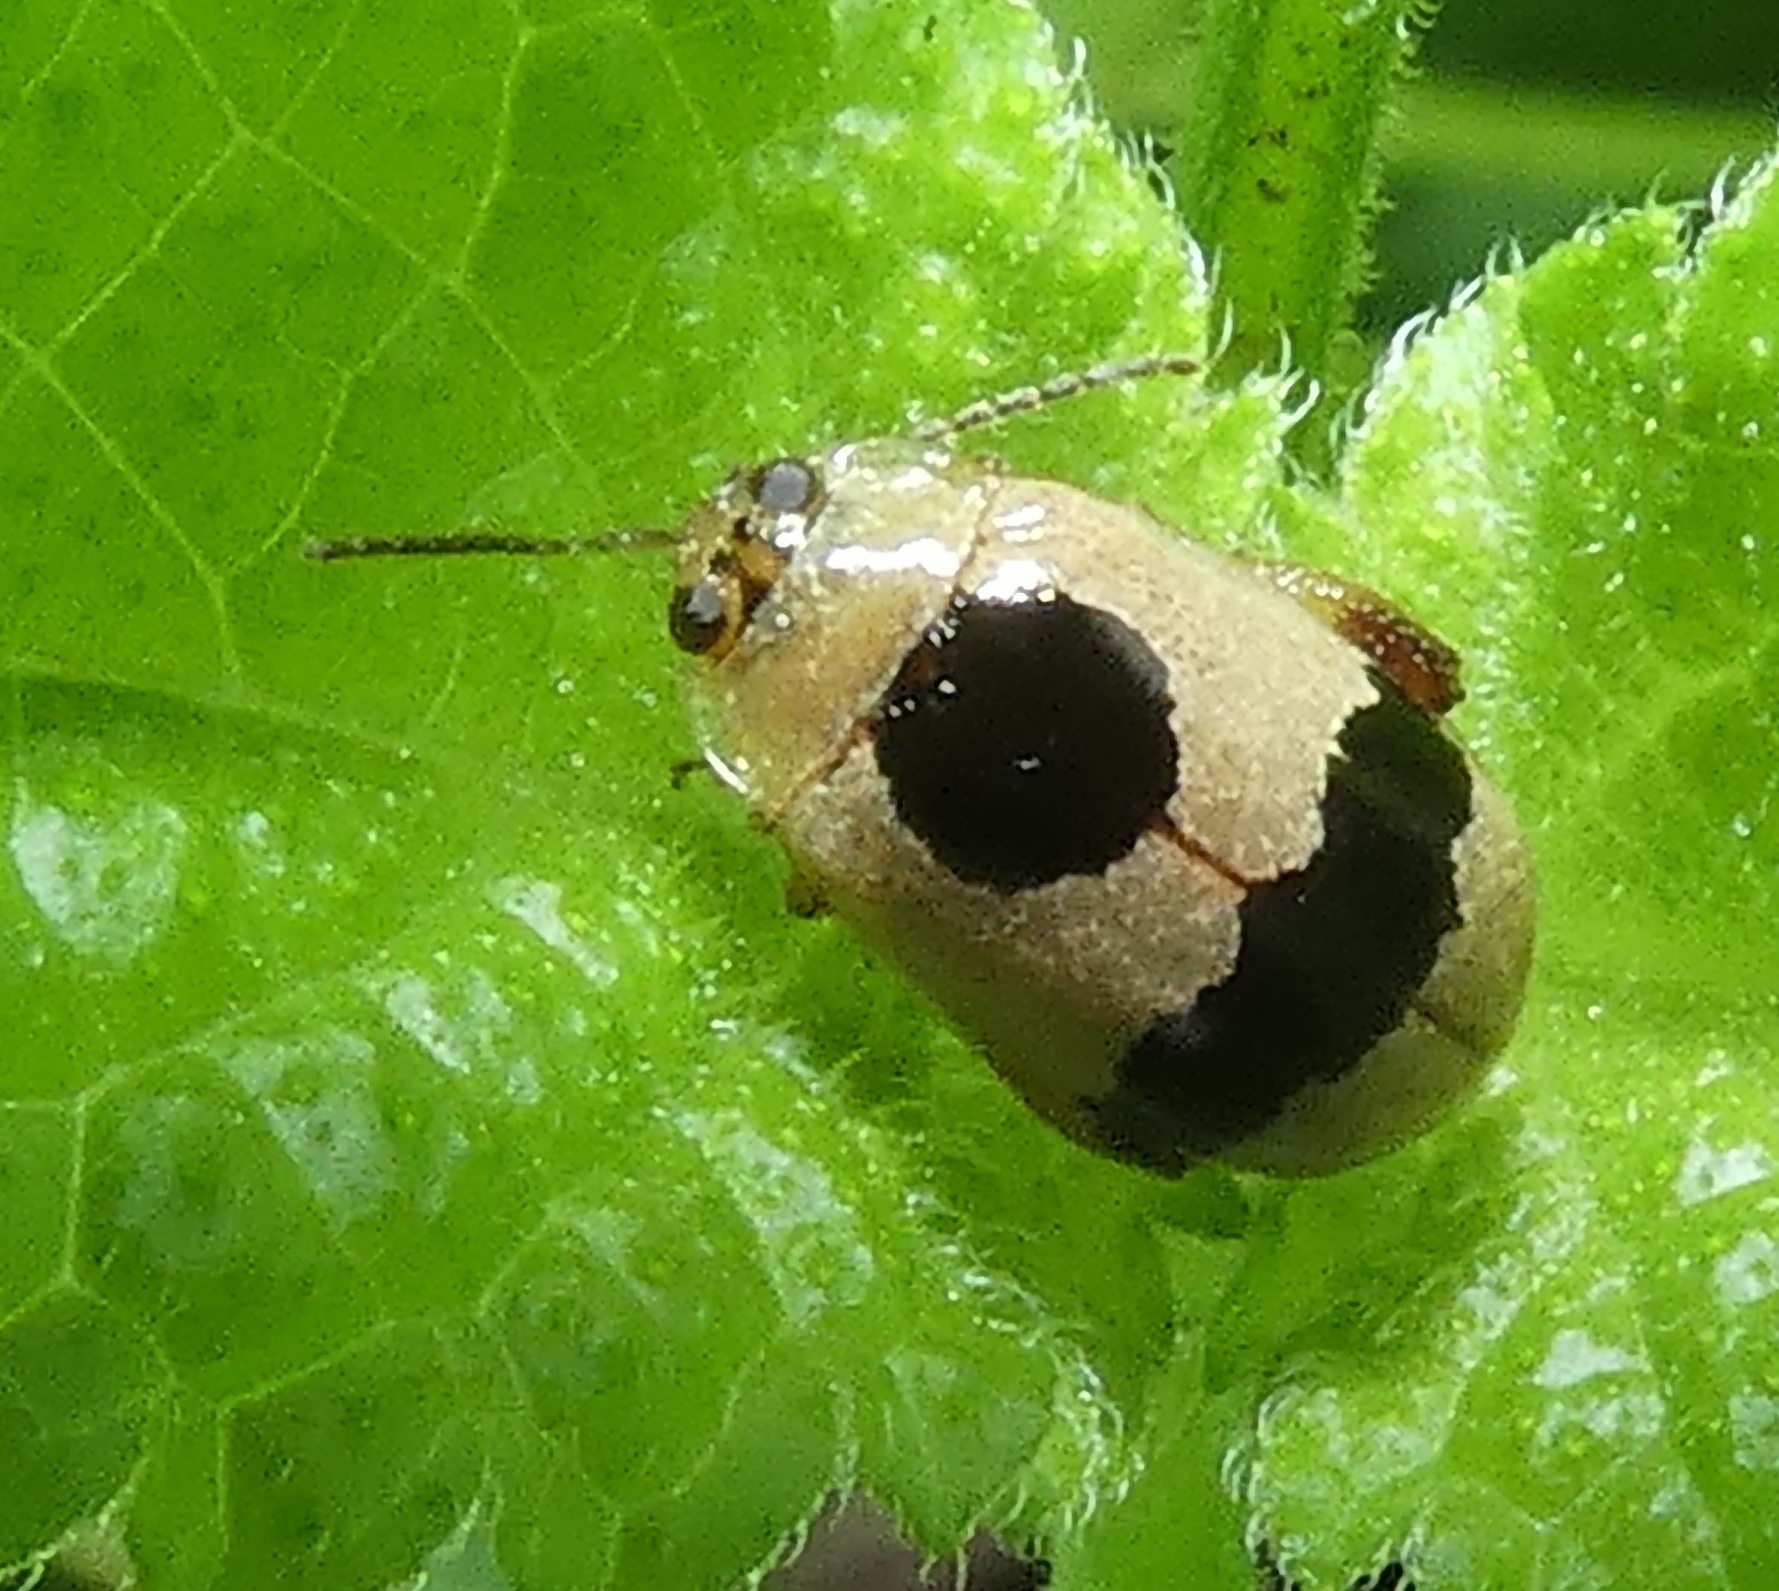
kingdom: Animalia
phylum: Arthropoda
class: Insecta
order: Coleoptera
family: Chrysomelidae
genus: Alagoasa
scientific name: Alagoasa
